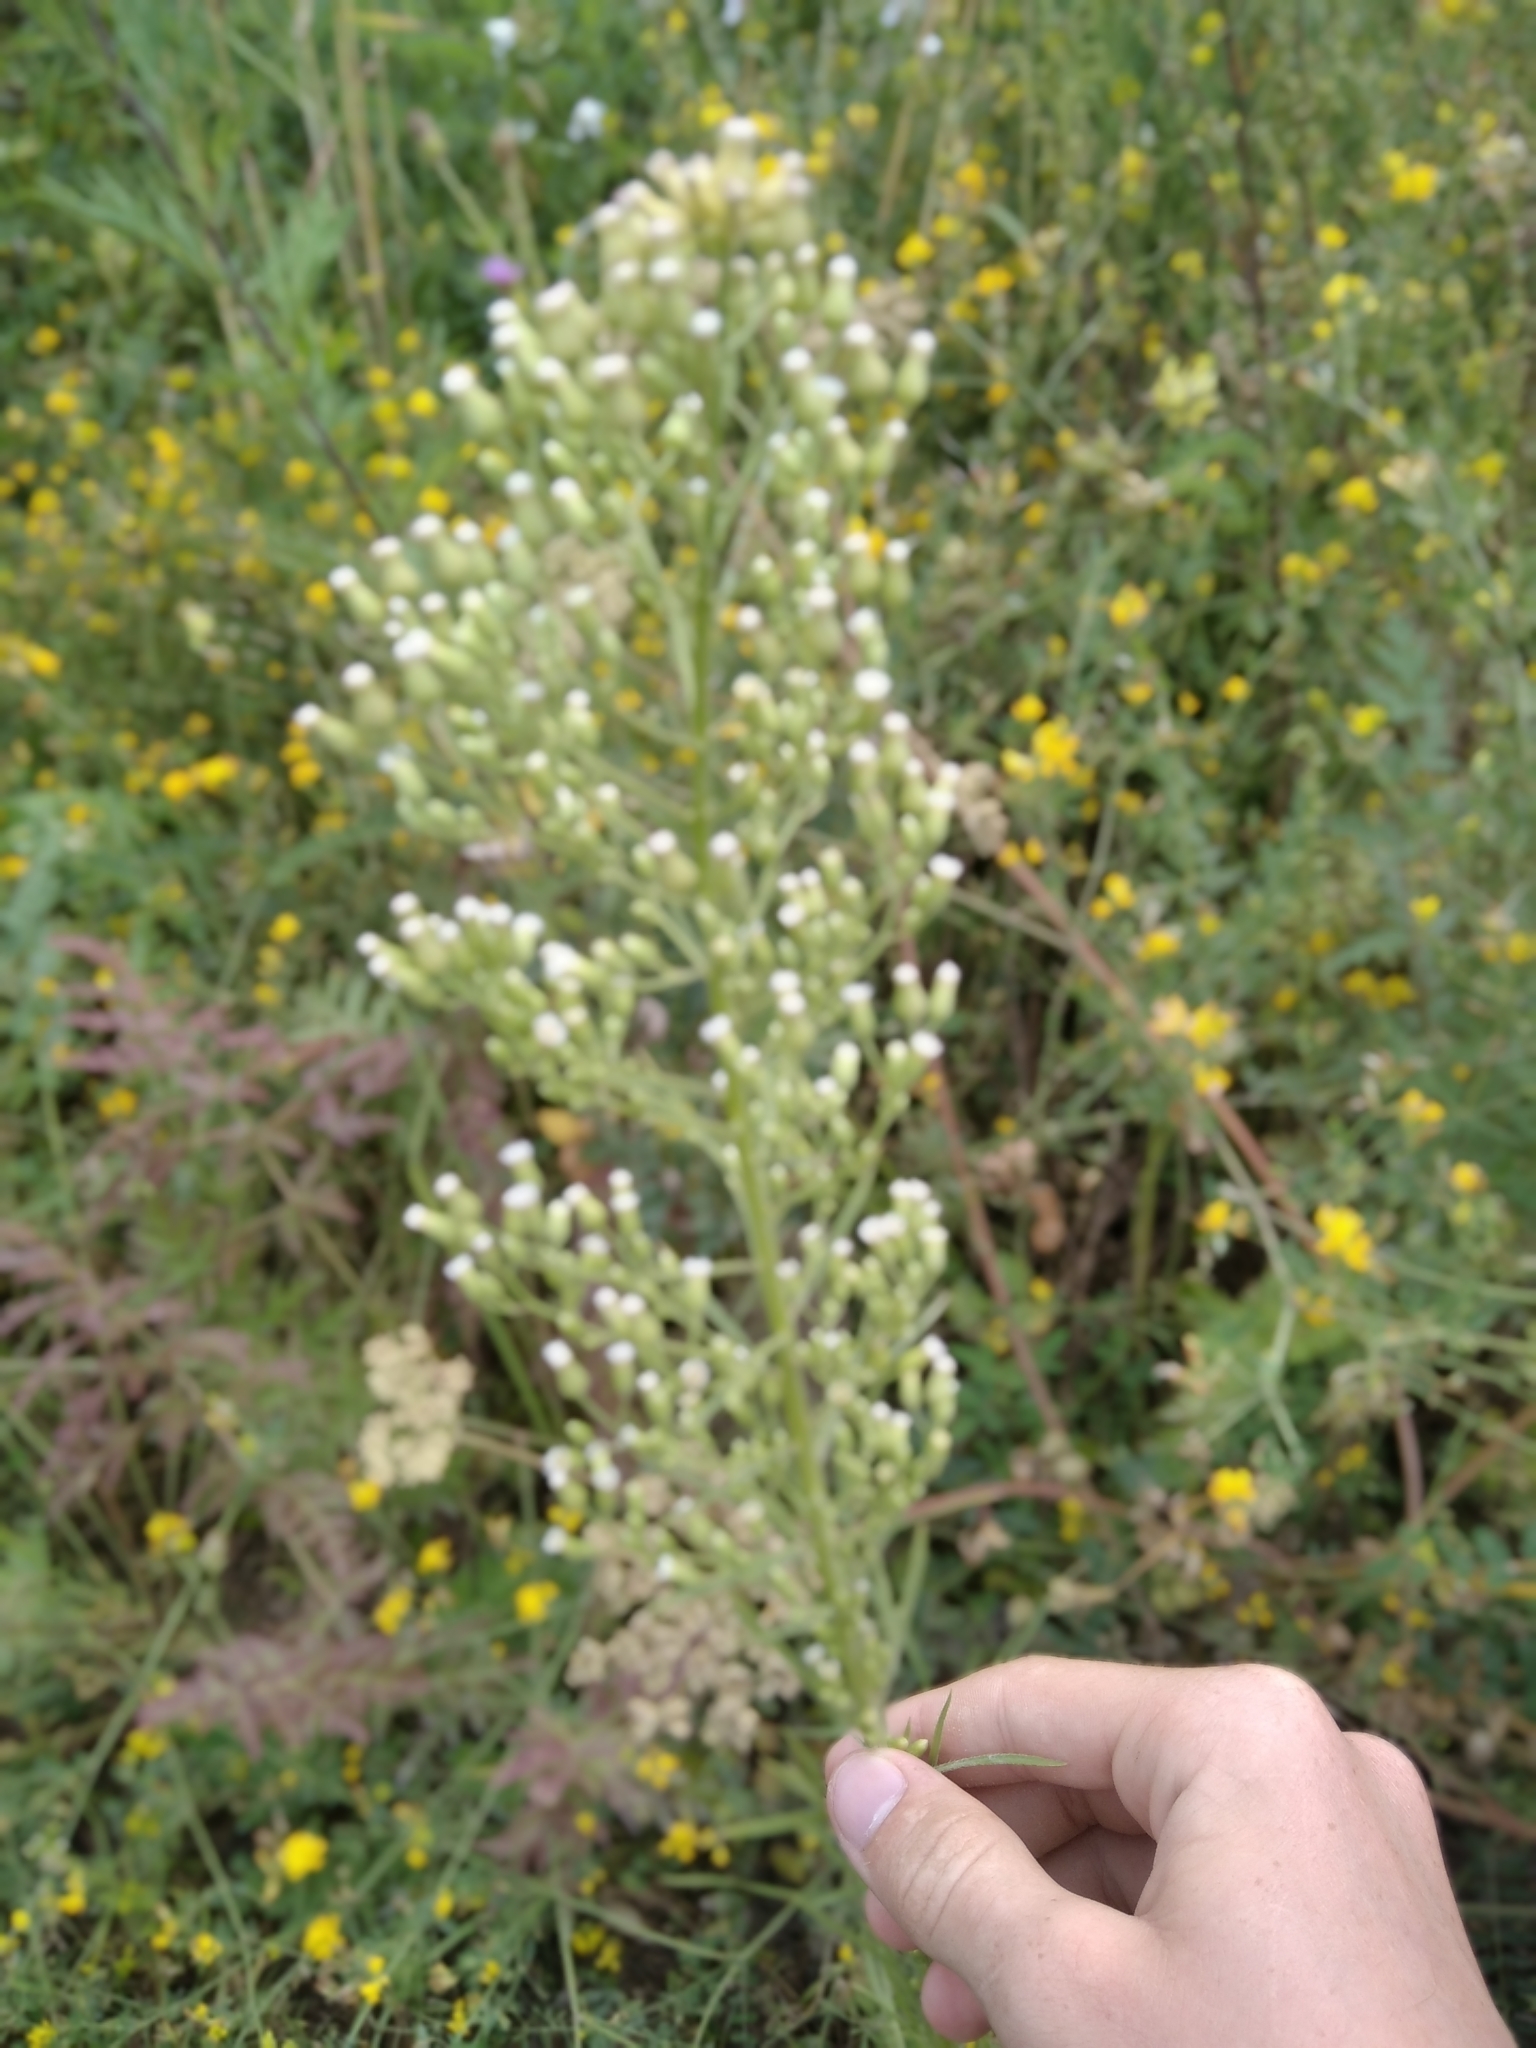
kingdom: Plantae
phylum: Tracheophyta
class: Magnoliopsida
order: Asterales
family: Asteraceae
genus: Erigeron
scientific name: Erigeron canadensis
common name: Canadian fleabane
